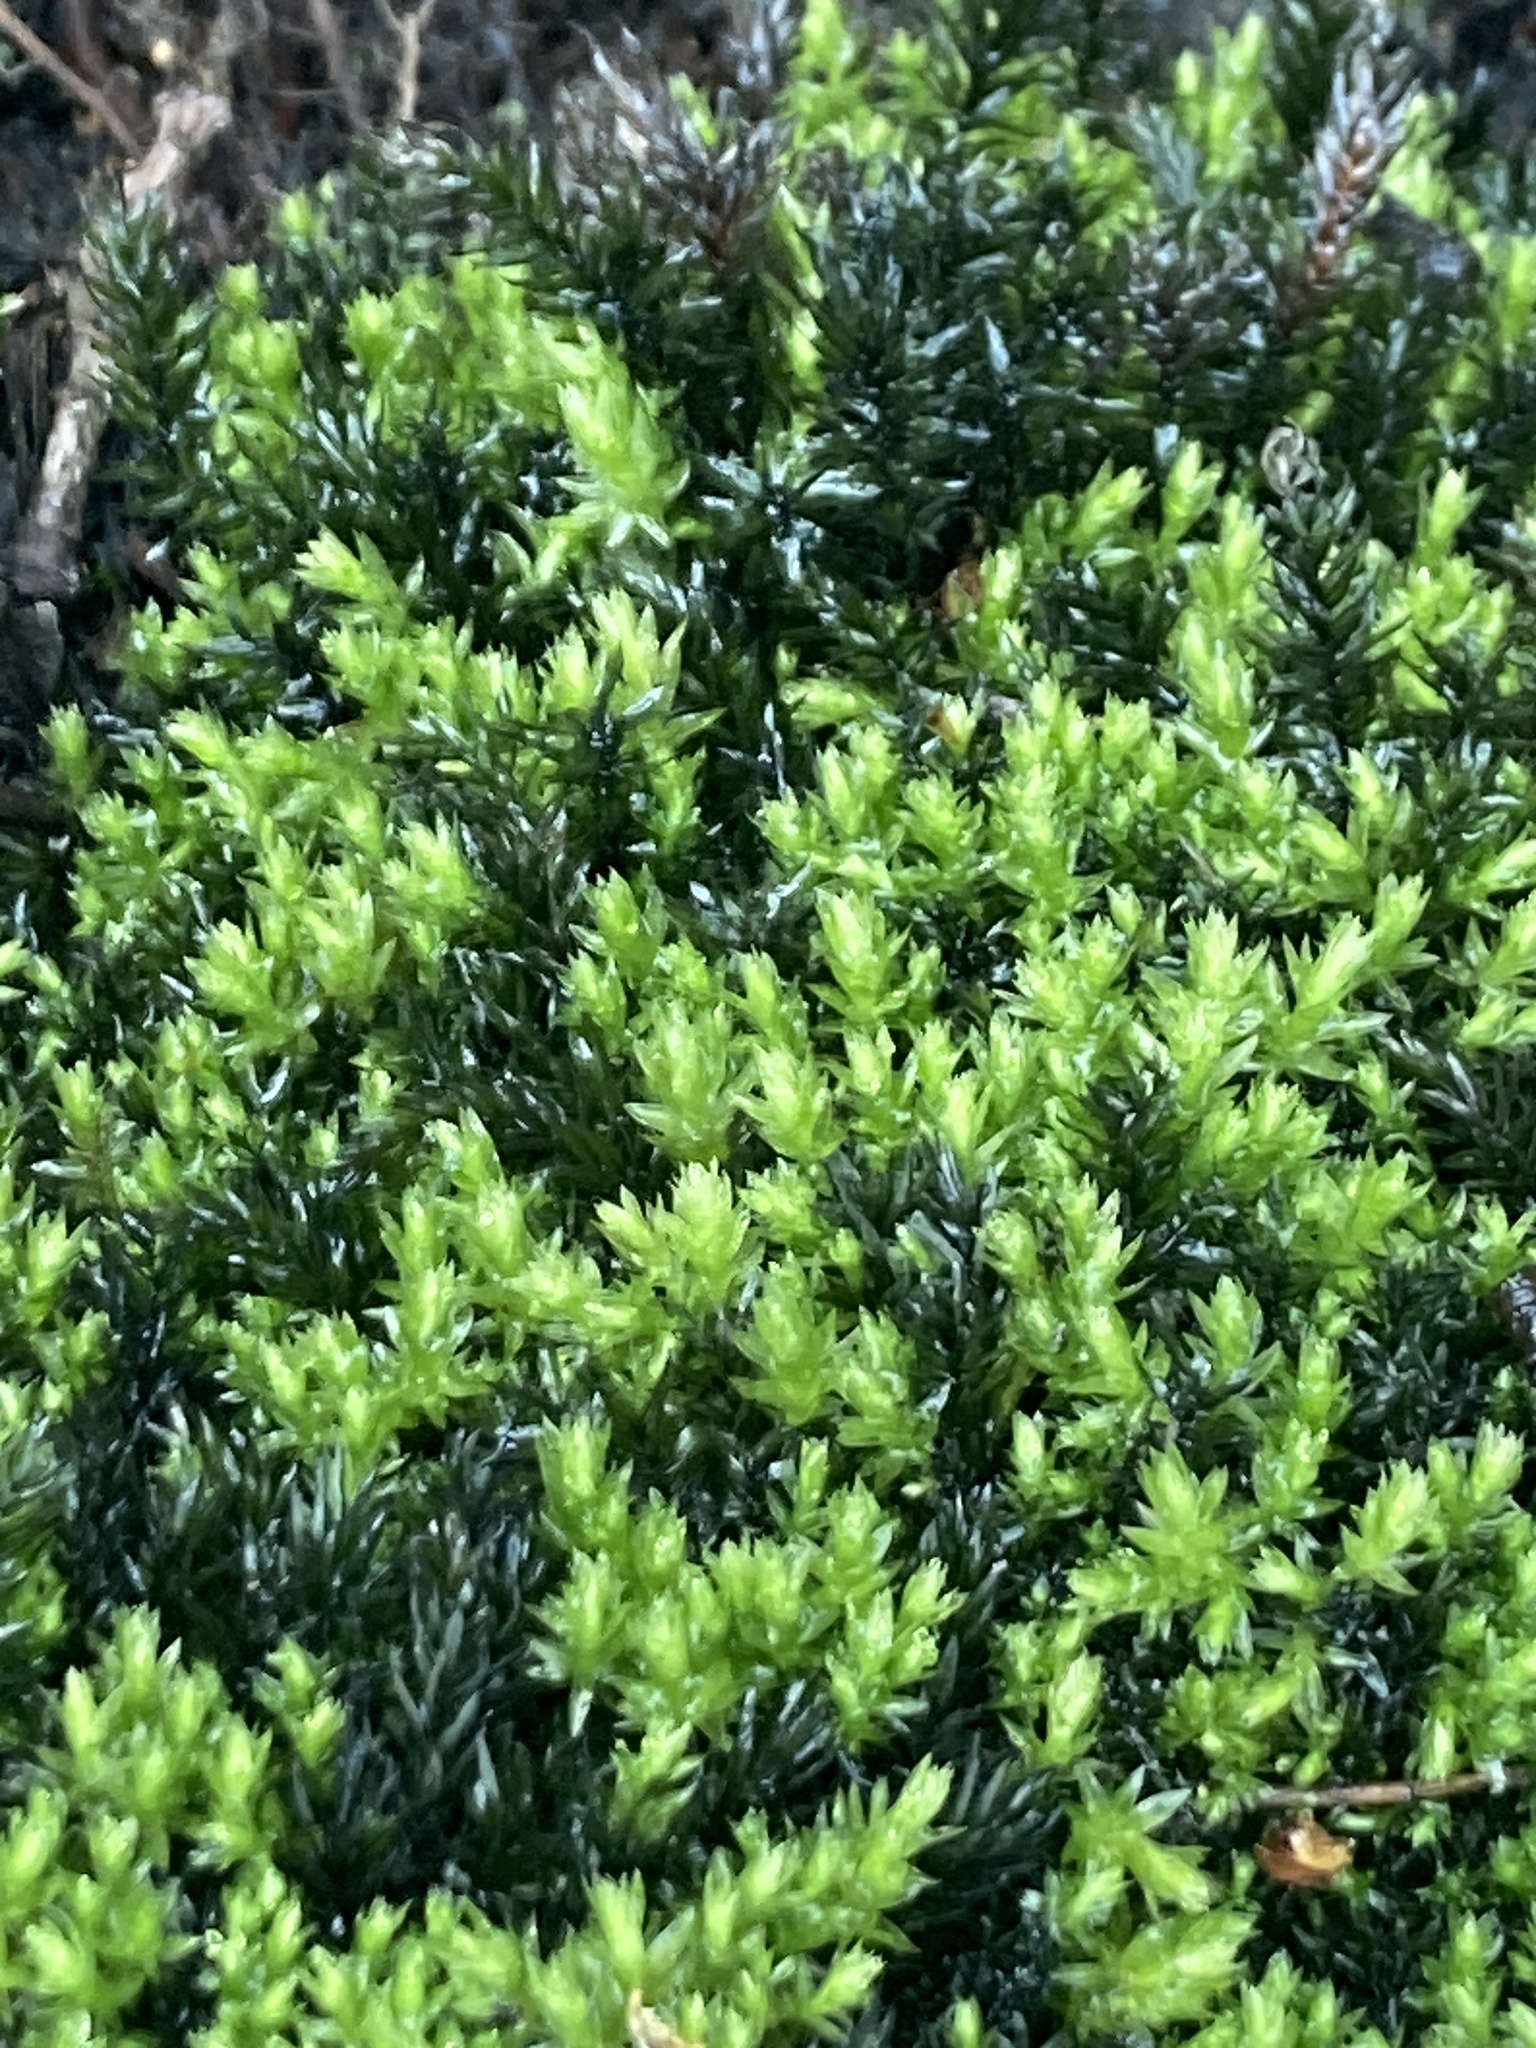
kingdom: Plantae
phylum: Bryophyta
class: Bryopsida
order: Bryales
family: Mniaceae
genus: Mnium
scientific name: Mnium hornum
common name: Swan's-neck leafy moss
